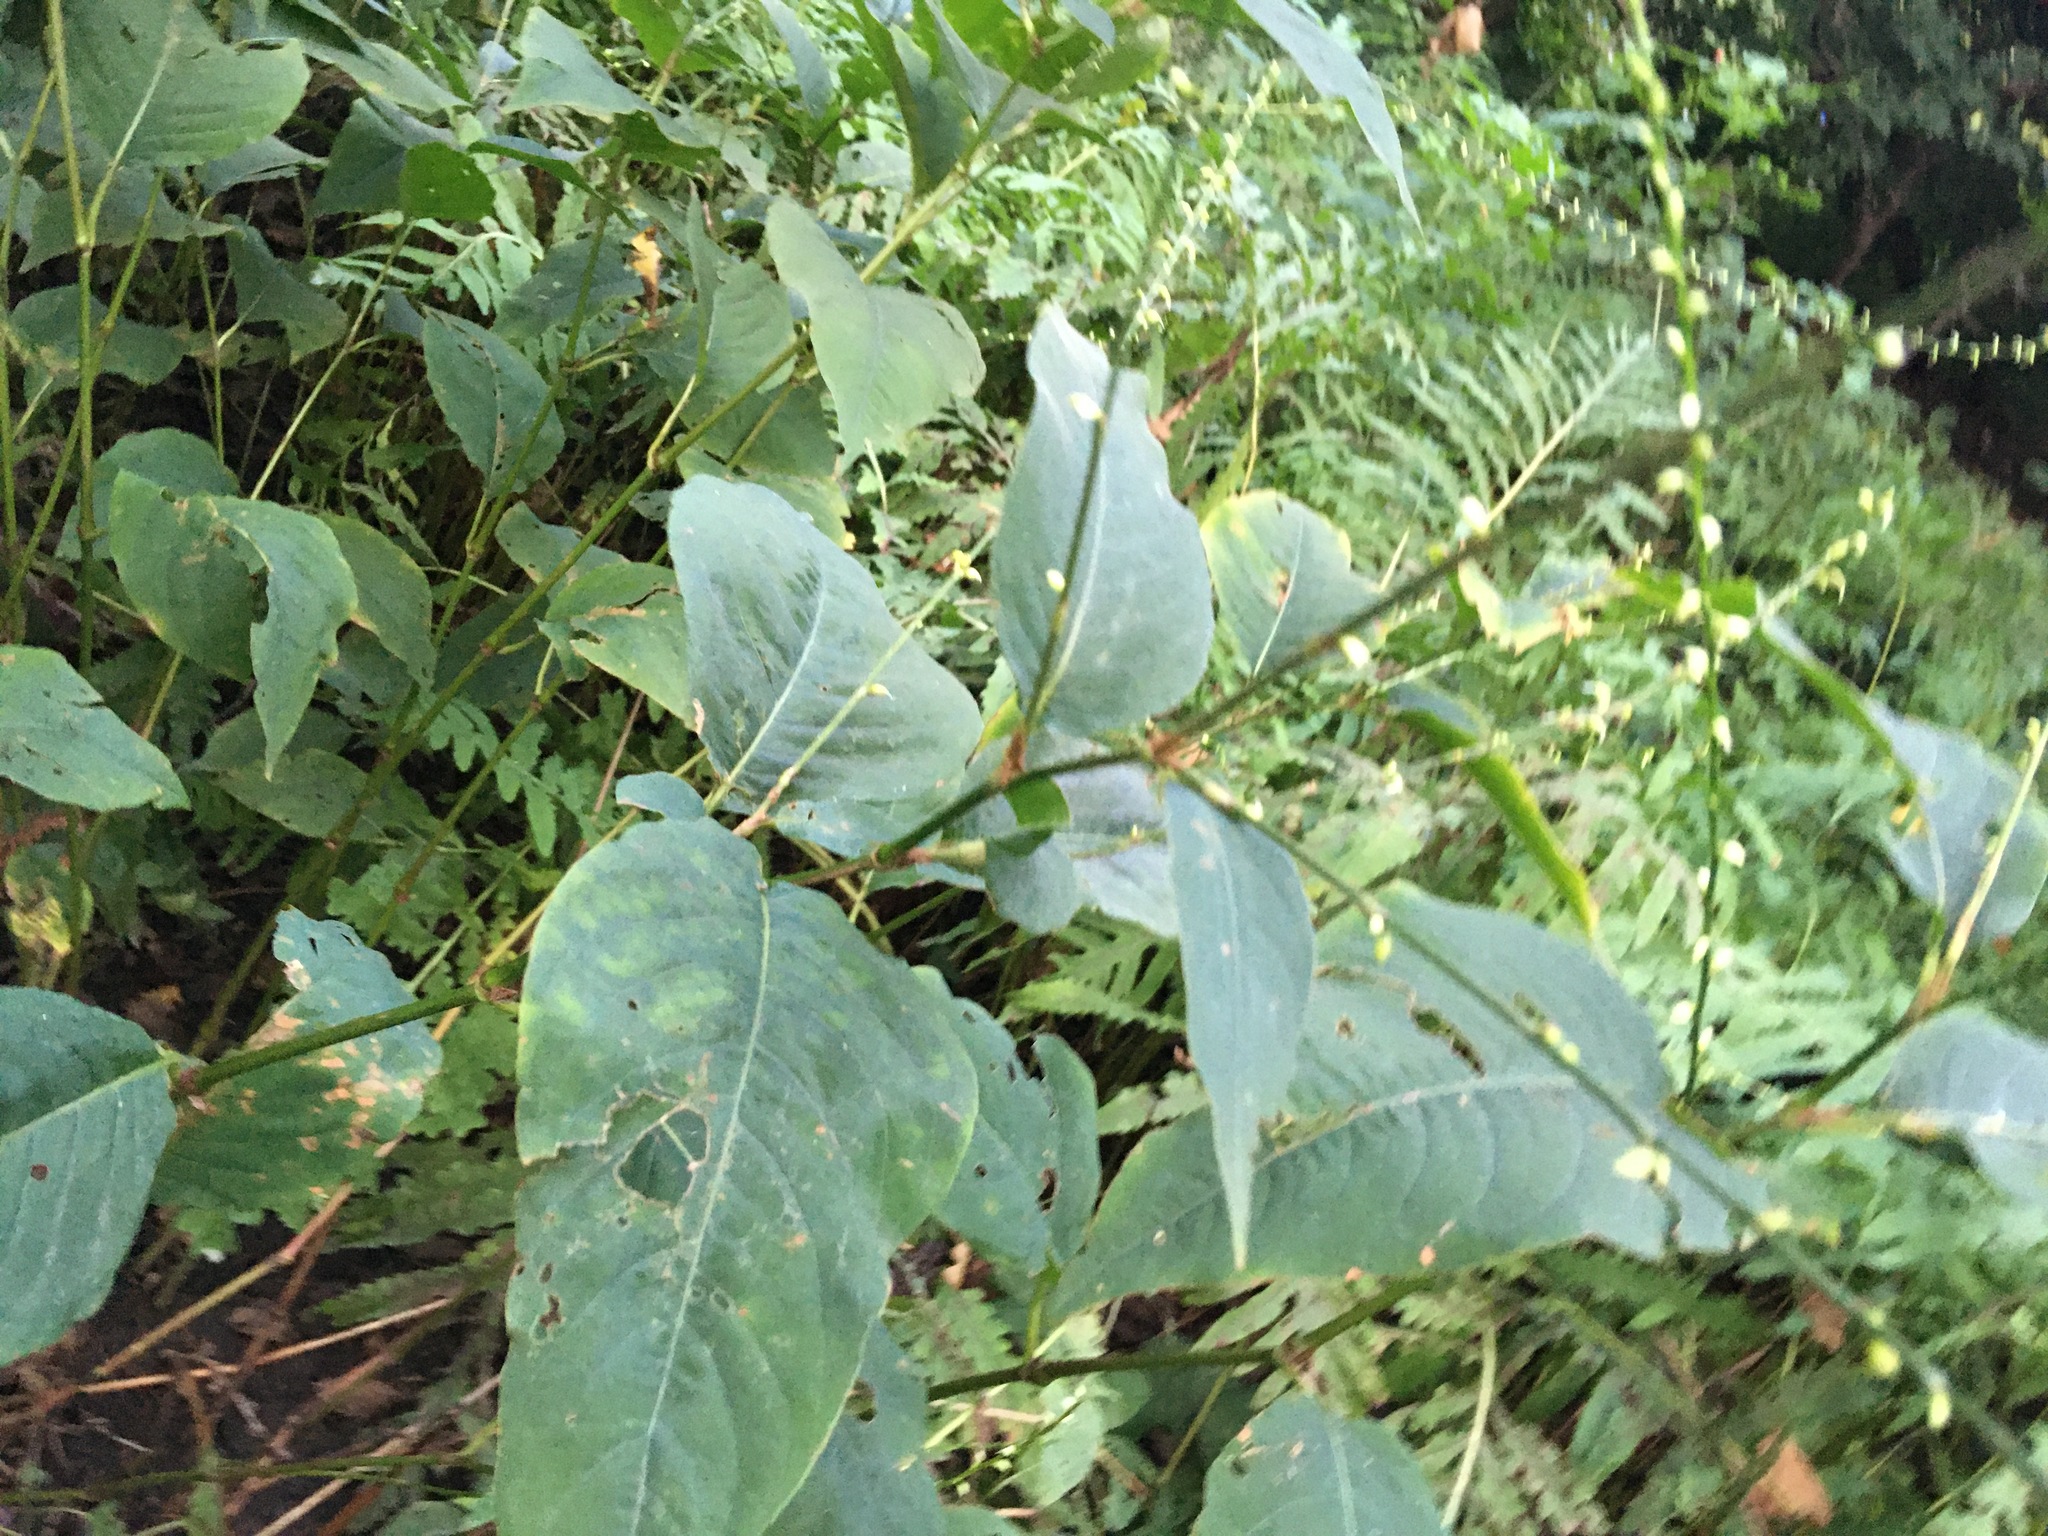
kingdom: Plantae
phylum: Tracheophyta
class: Magnoliopsida
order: Caryophyllales
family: Polygonaceae
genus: Persicaria
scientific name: Persicaria virginiana
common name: Jumpseed
